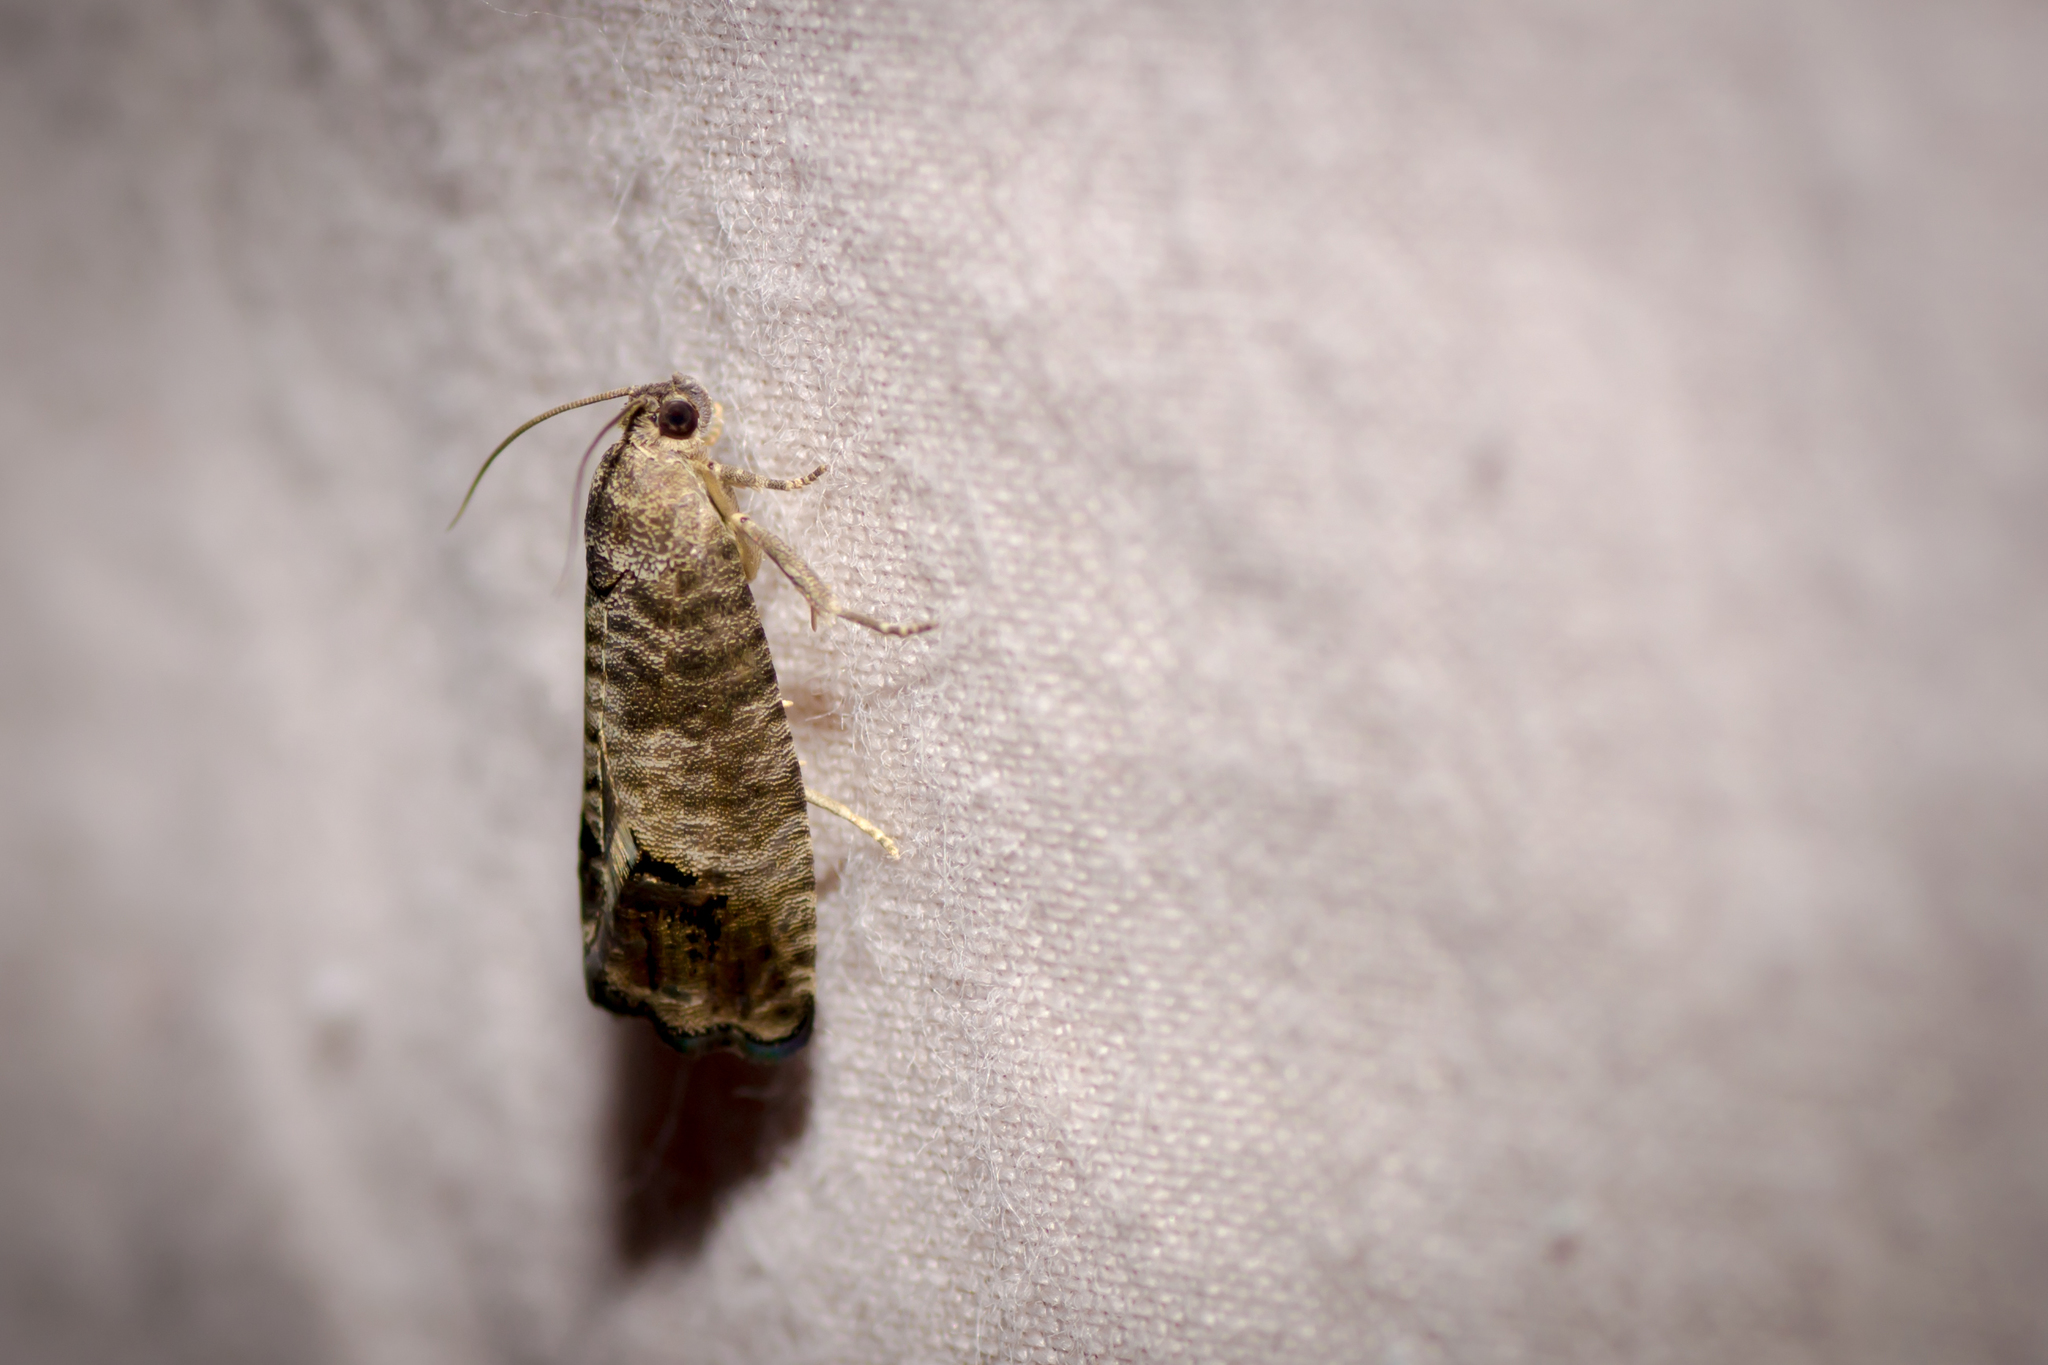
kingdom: Animalia
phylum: Arthropoda
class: Insecta
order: Lepidoptera
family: Tortricidae
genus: Cydia
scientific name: Cydia pomonella
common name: Codling moth
